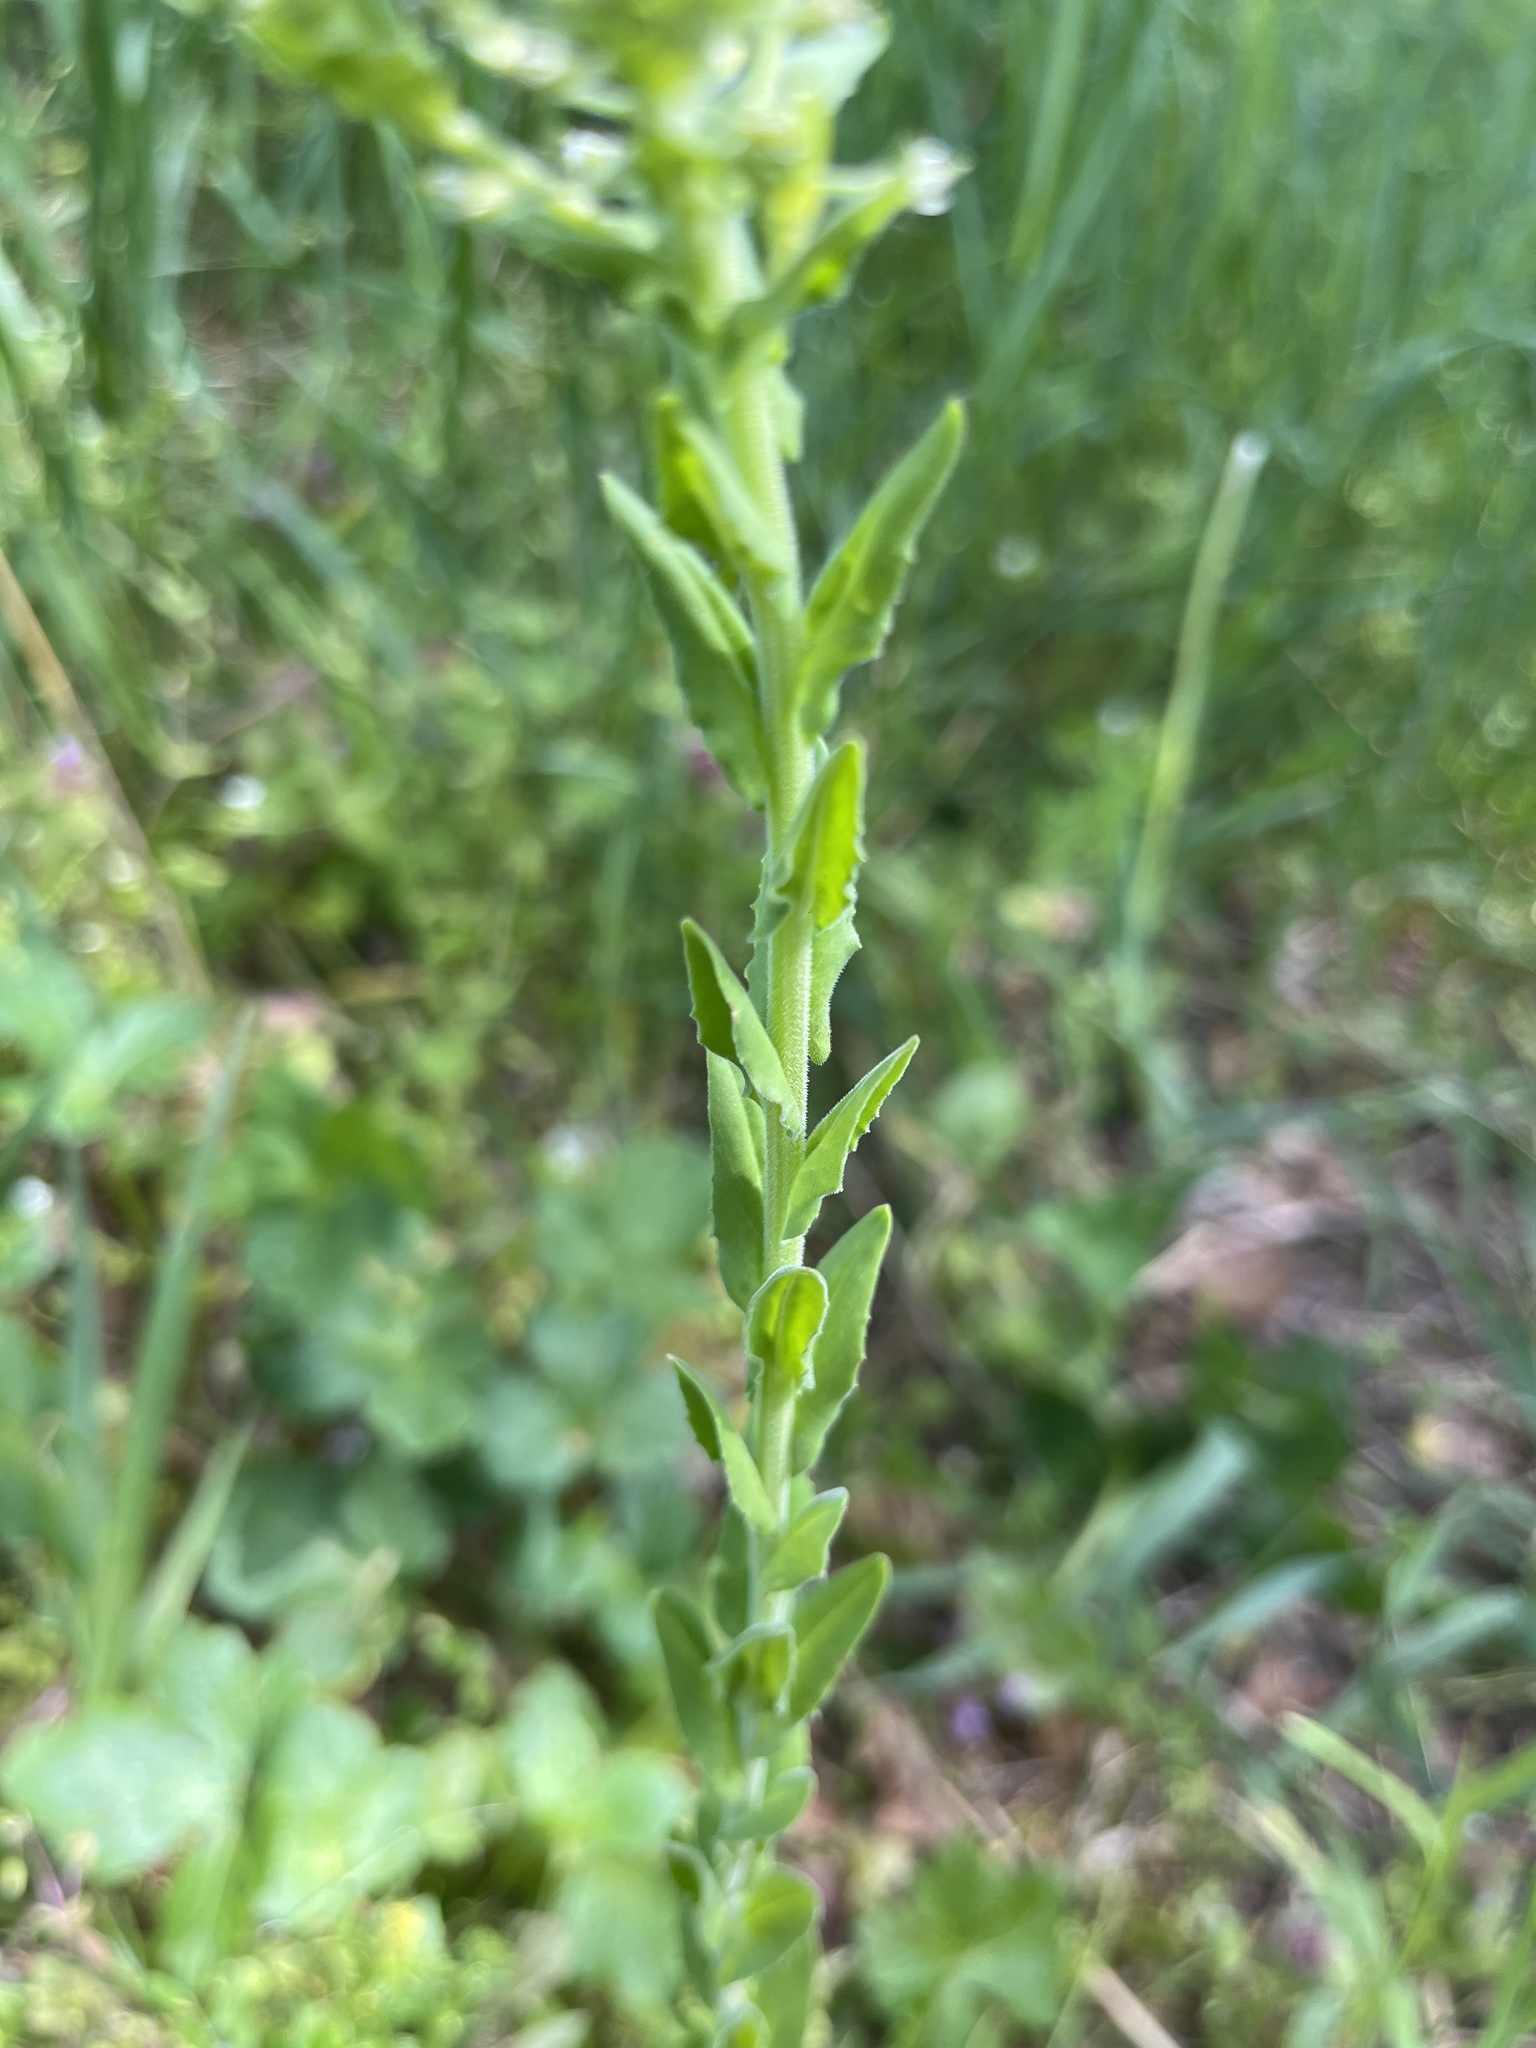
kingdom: Plantae
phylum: Tracheophyta
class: Magnoliopsida
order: Brassicales
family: Brassicaceae
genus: Lepidium
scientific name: Lepidium campestre
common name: Field pepperwort
